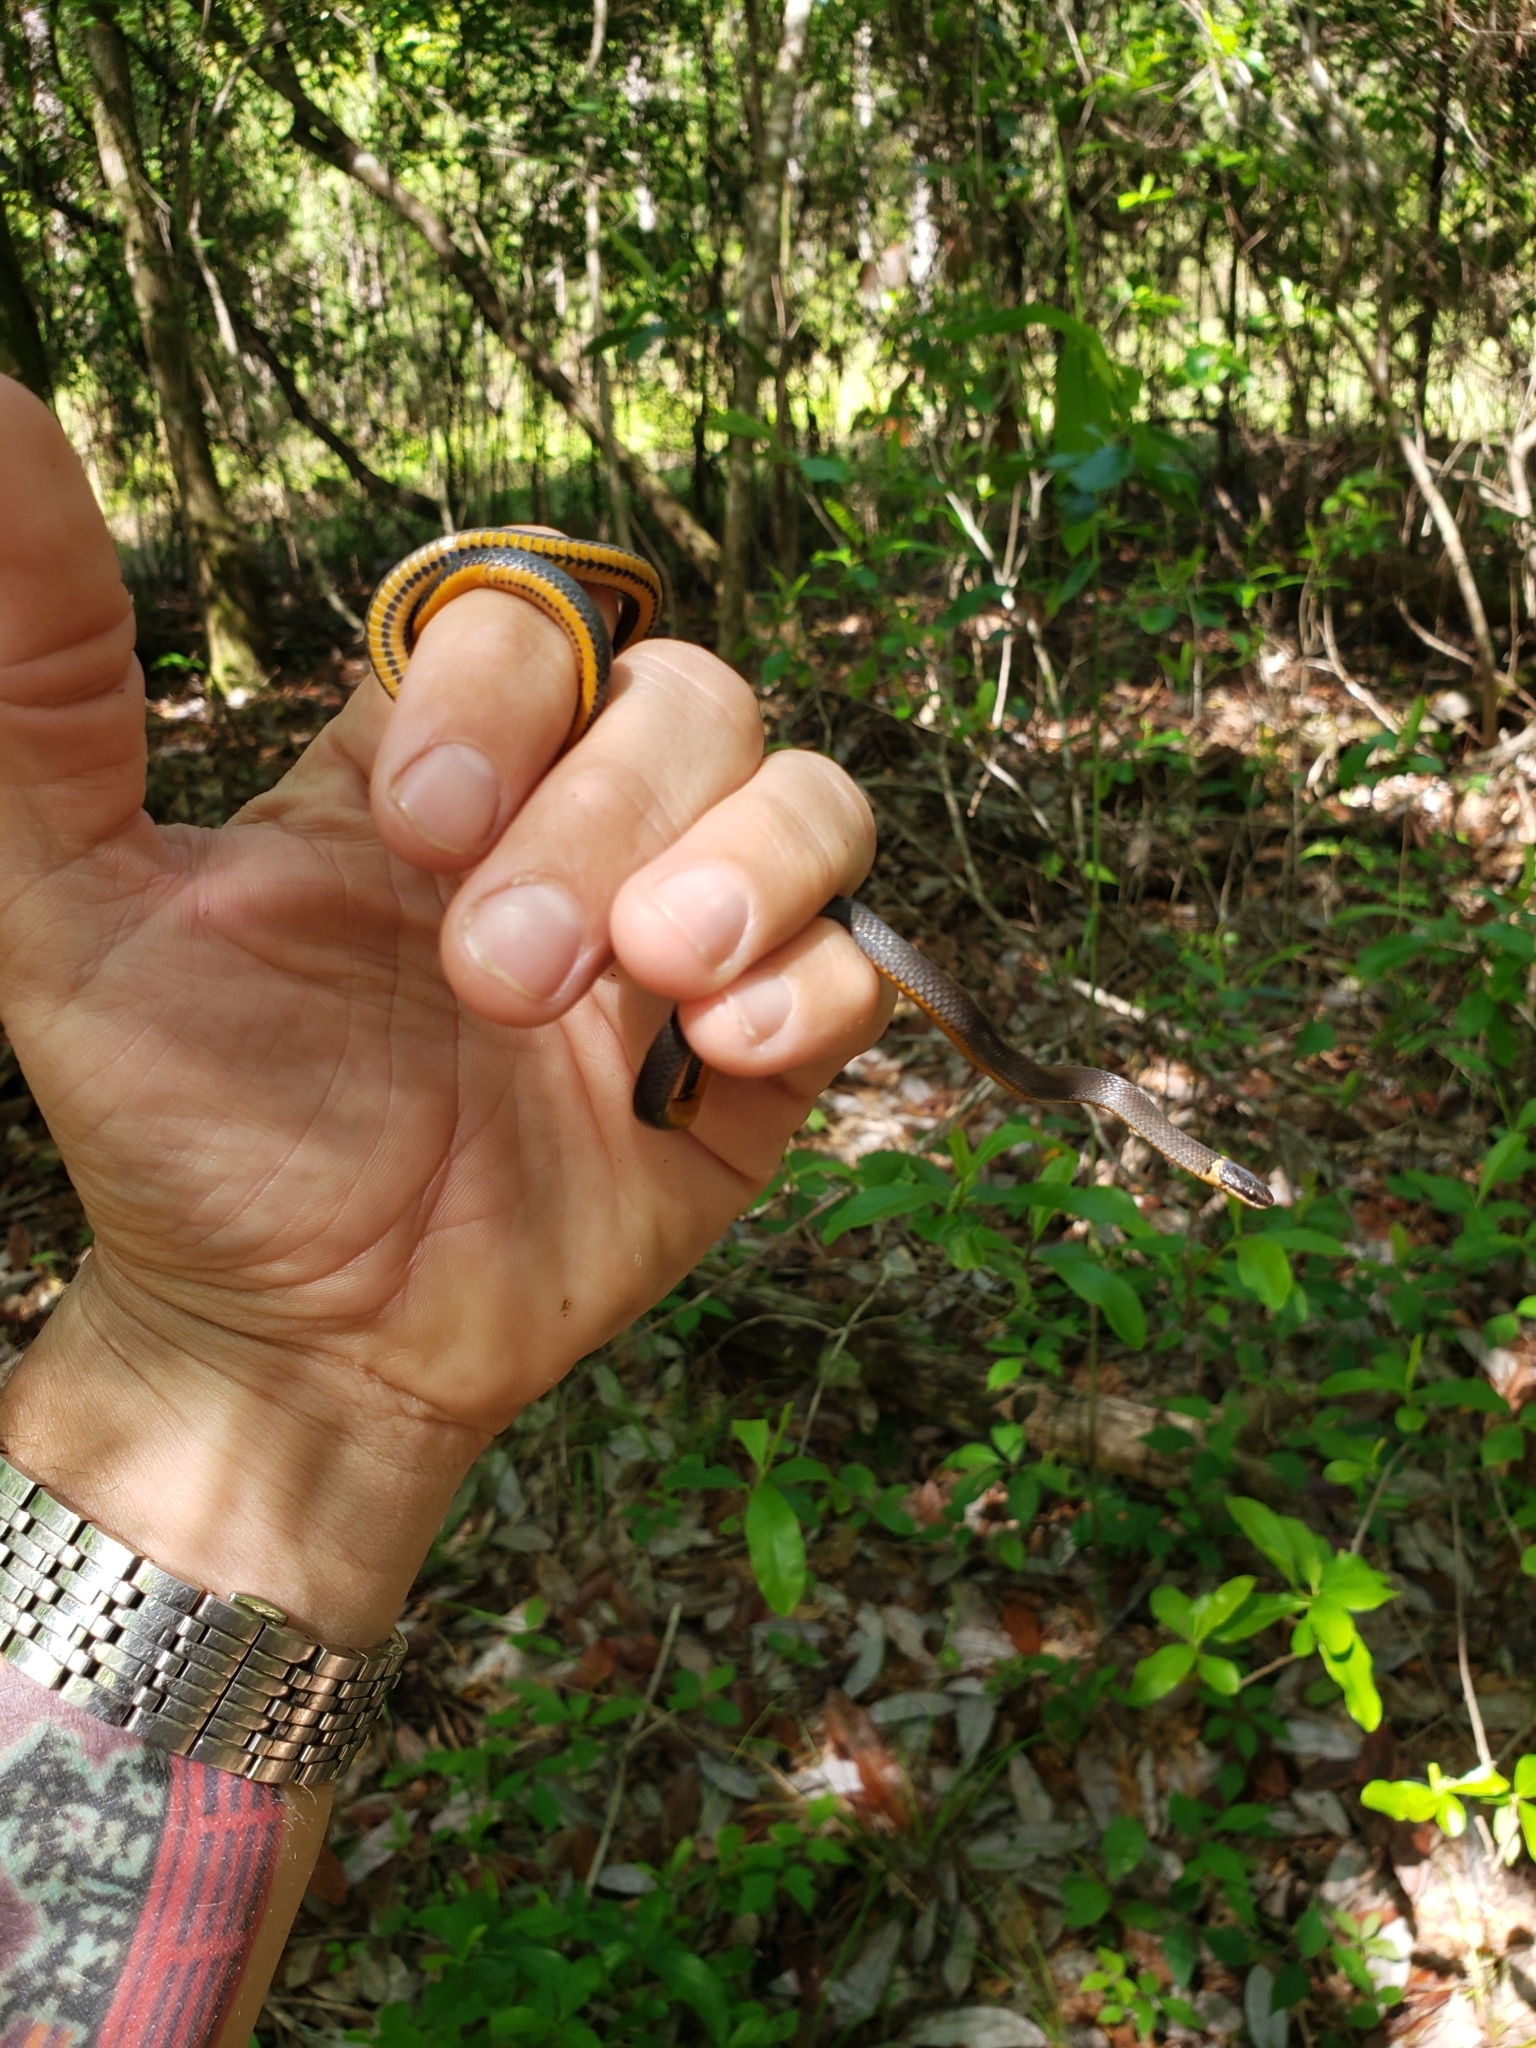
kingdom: Animalia
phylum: Chordata
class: Squamata
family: Colubridae
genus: Diadophis
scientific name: Diadophis punctatus
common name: Ringneck snake
